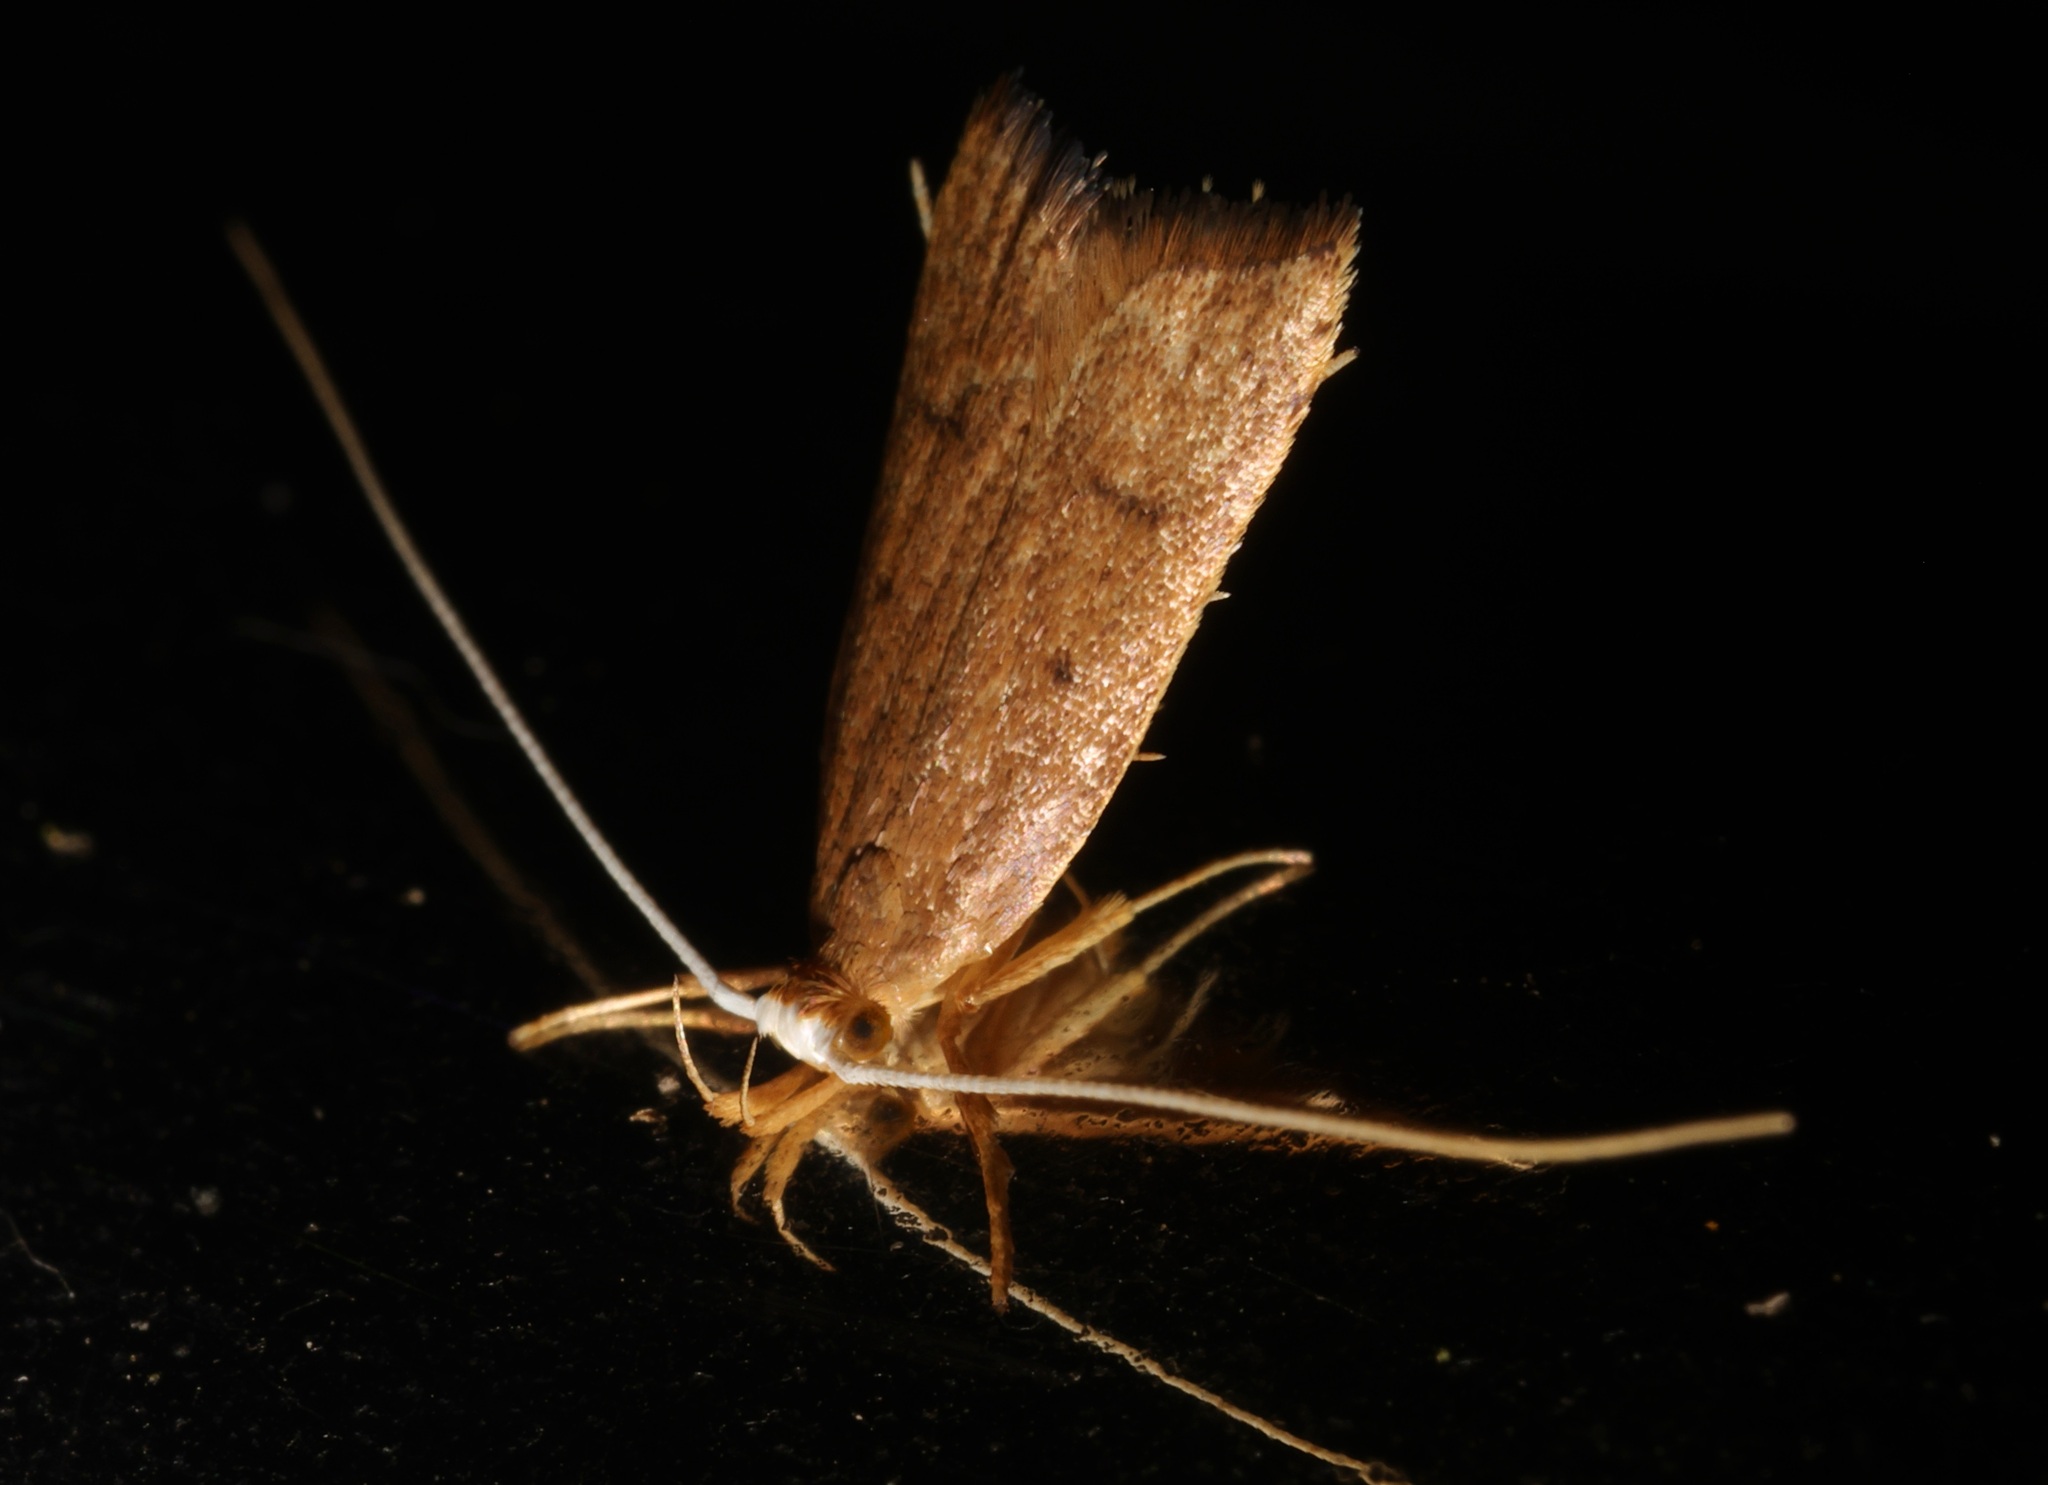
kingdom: Animalia
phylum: Arthropoda
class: Insecta
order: Lepidoptera
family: Lecithoceridae
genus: Lecitholaxa
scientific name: Lecitholaxa thiodora
